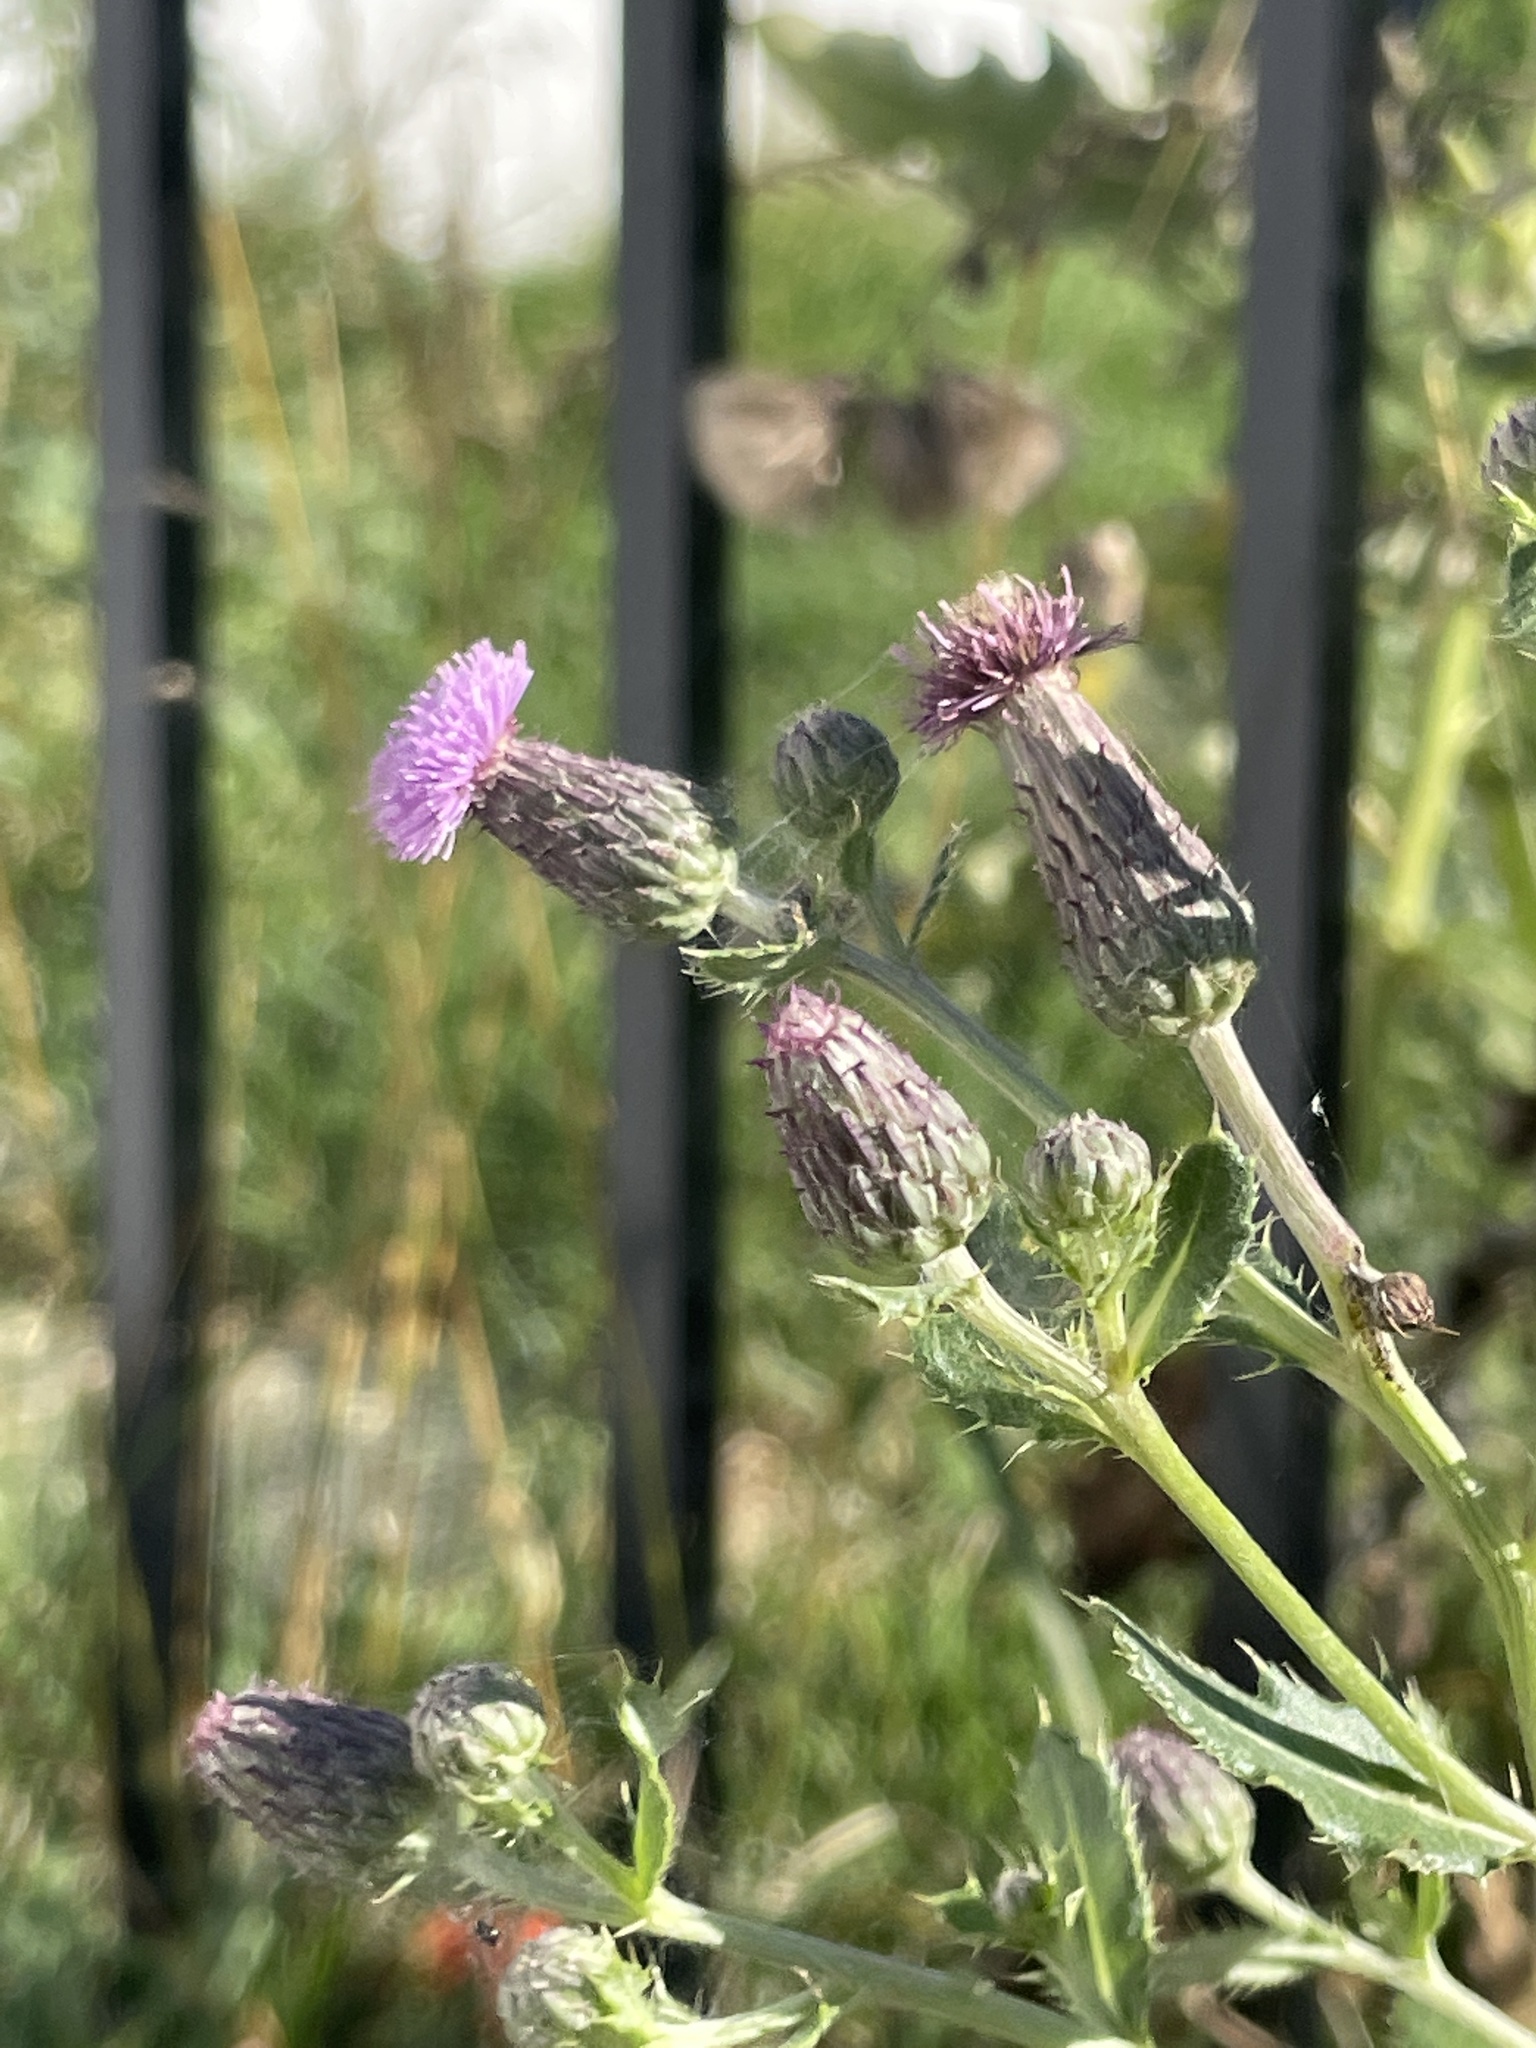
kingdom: Plantae
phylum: Tracheophyta
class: Magnoliopsida
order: Asterales
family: Asteraceae
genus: Cirsium
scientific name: Cirsium arvense
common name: Creeping thistle
